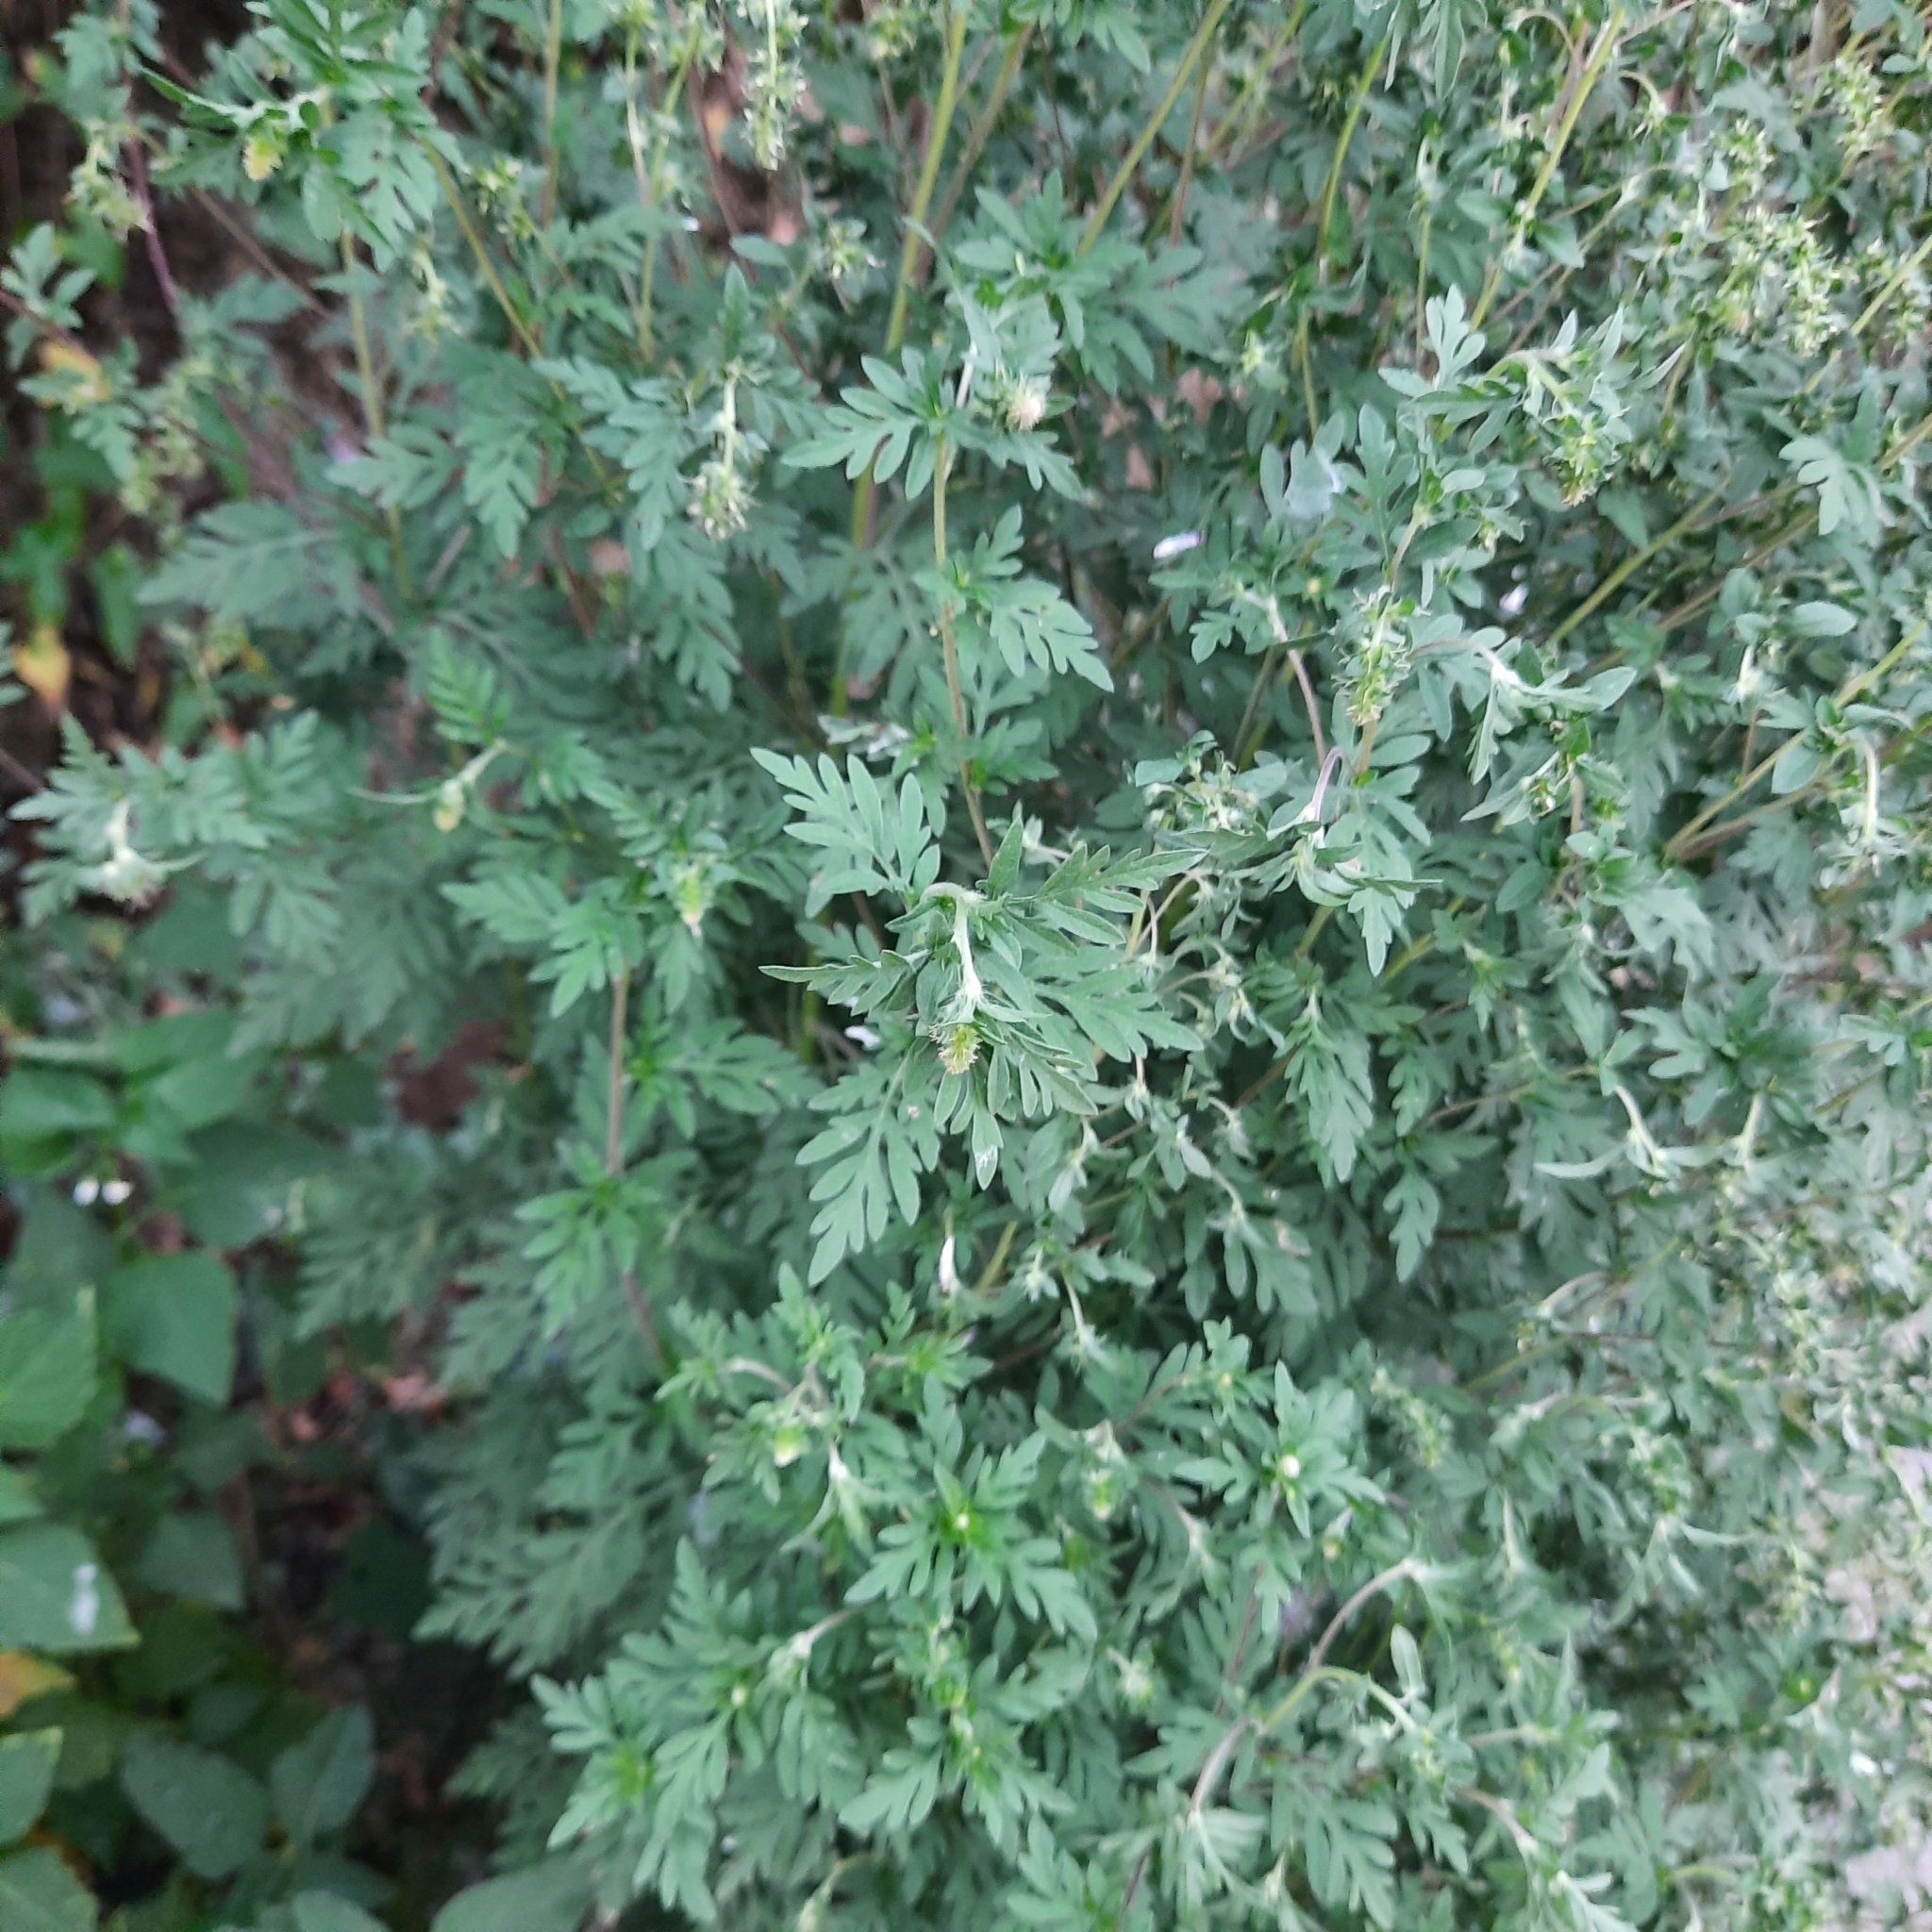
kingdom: Plantae
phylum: Tracheophyta
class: Magnoliopsida
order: Asterales
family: Asteraceae
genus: Ambrosia
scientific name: Ambrosia artemisiifolia
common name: Annual ragweed
